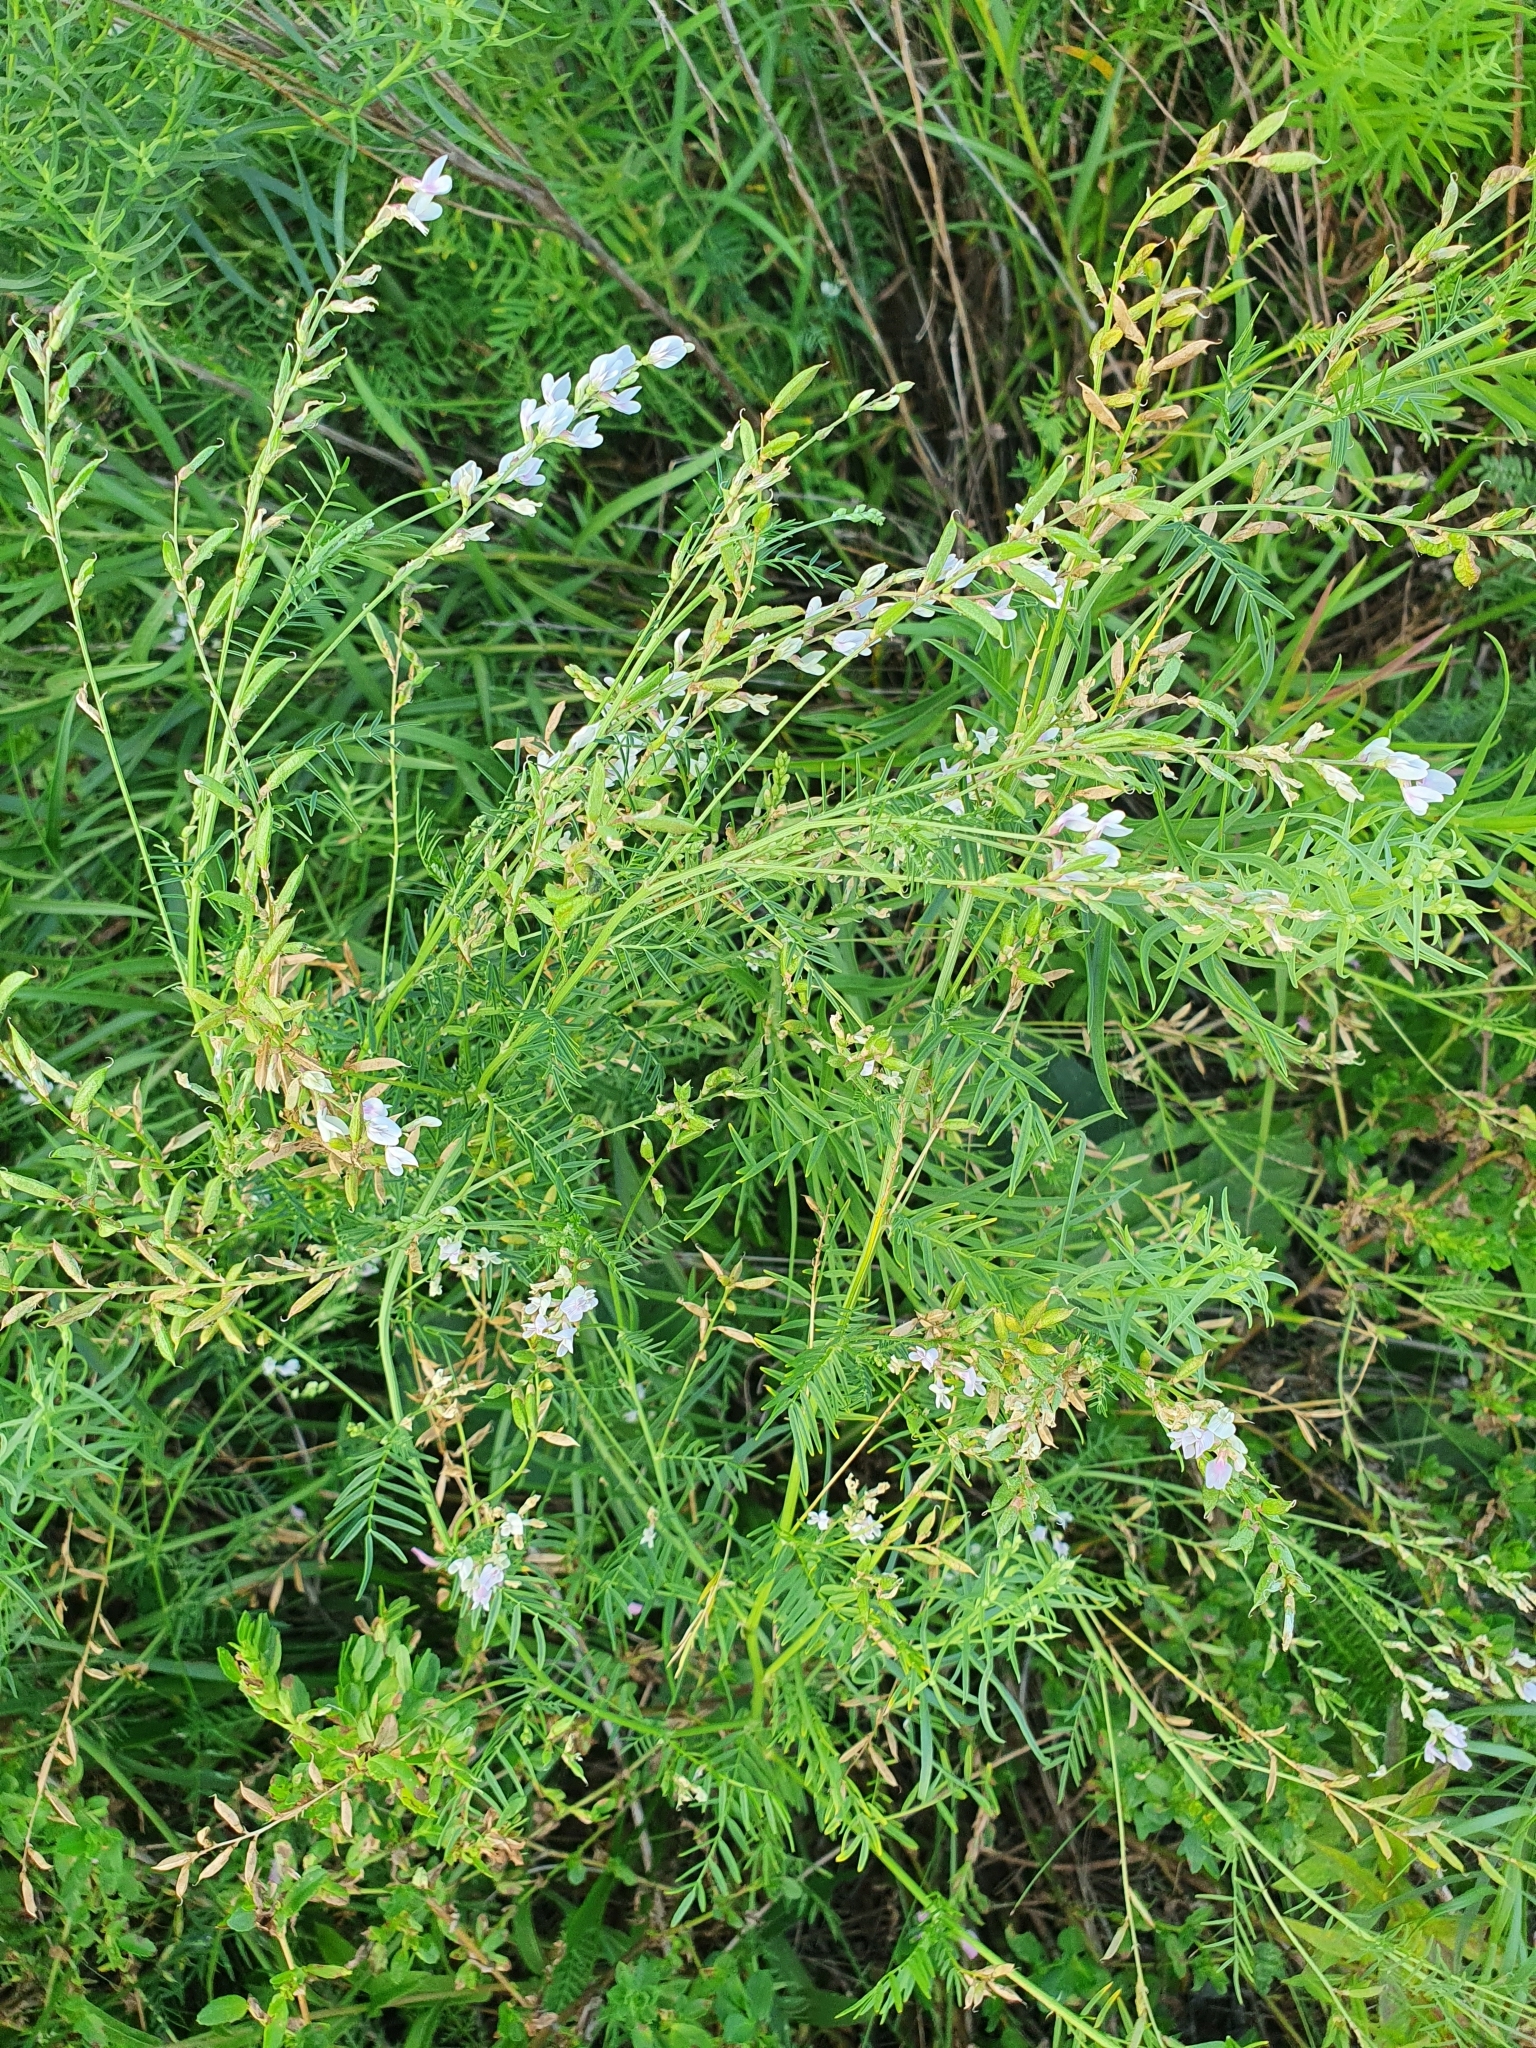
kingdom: Plantae
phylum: Tracheophyta
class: Magnoliopsida
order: Fabales
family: Fabaceae
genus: Astragalus
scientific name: Astragalus sulcatus
